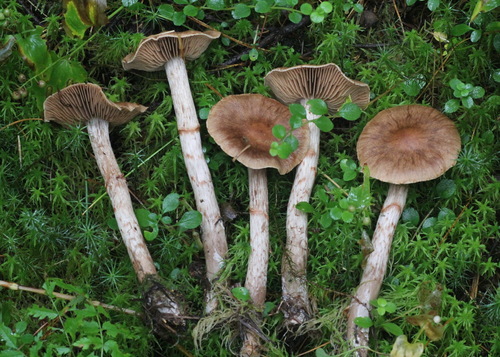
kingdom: Fungi
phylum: Basidiomycota
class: Agaricomycetes
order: Agaricales
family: Cortinariaceae
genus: Cortinarius
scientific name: Cortinarius armillatus
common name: Red banded webcap
